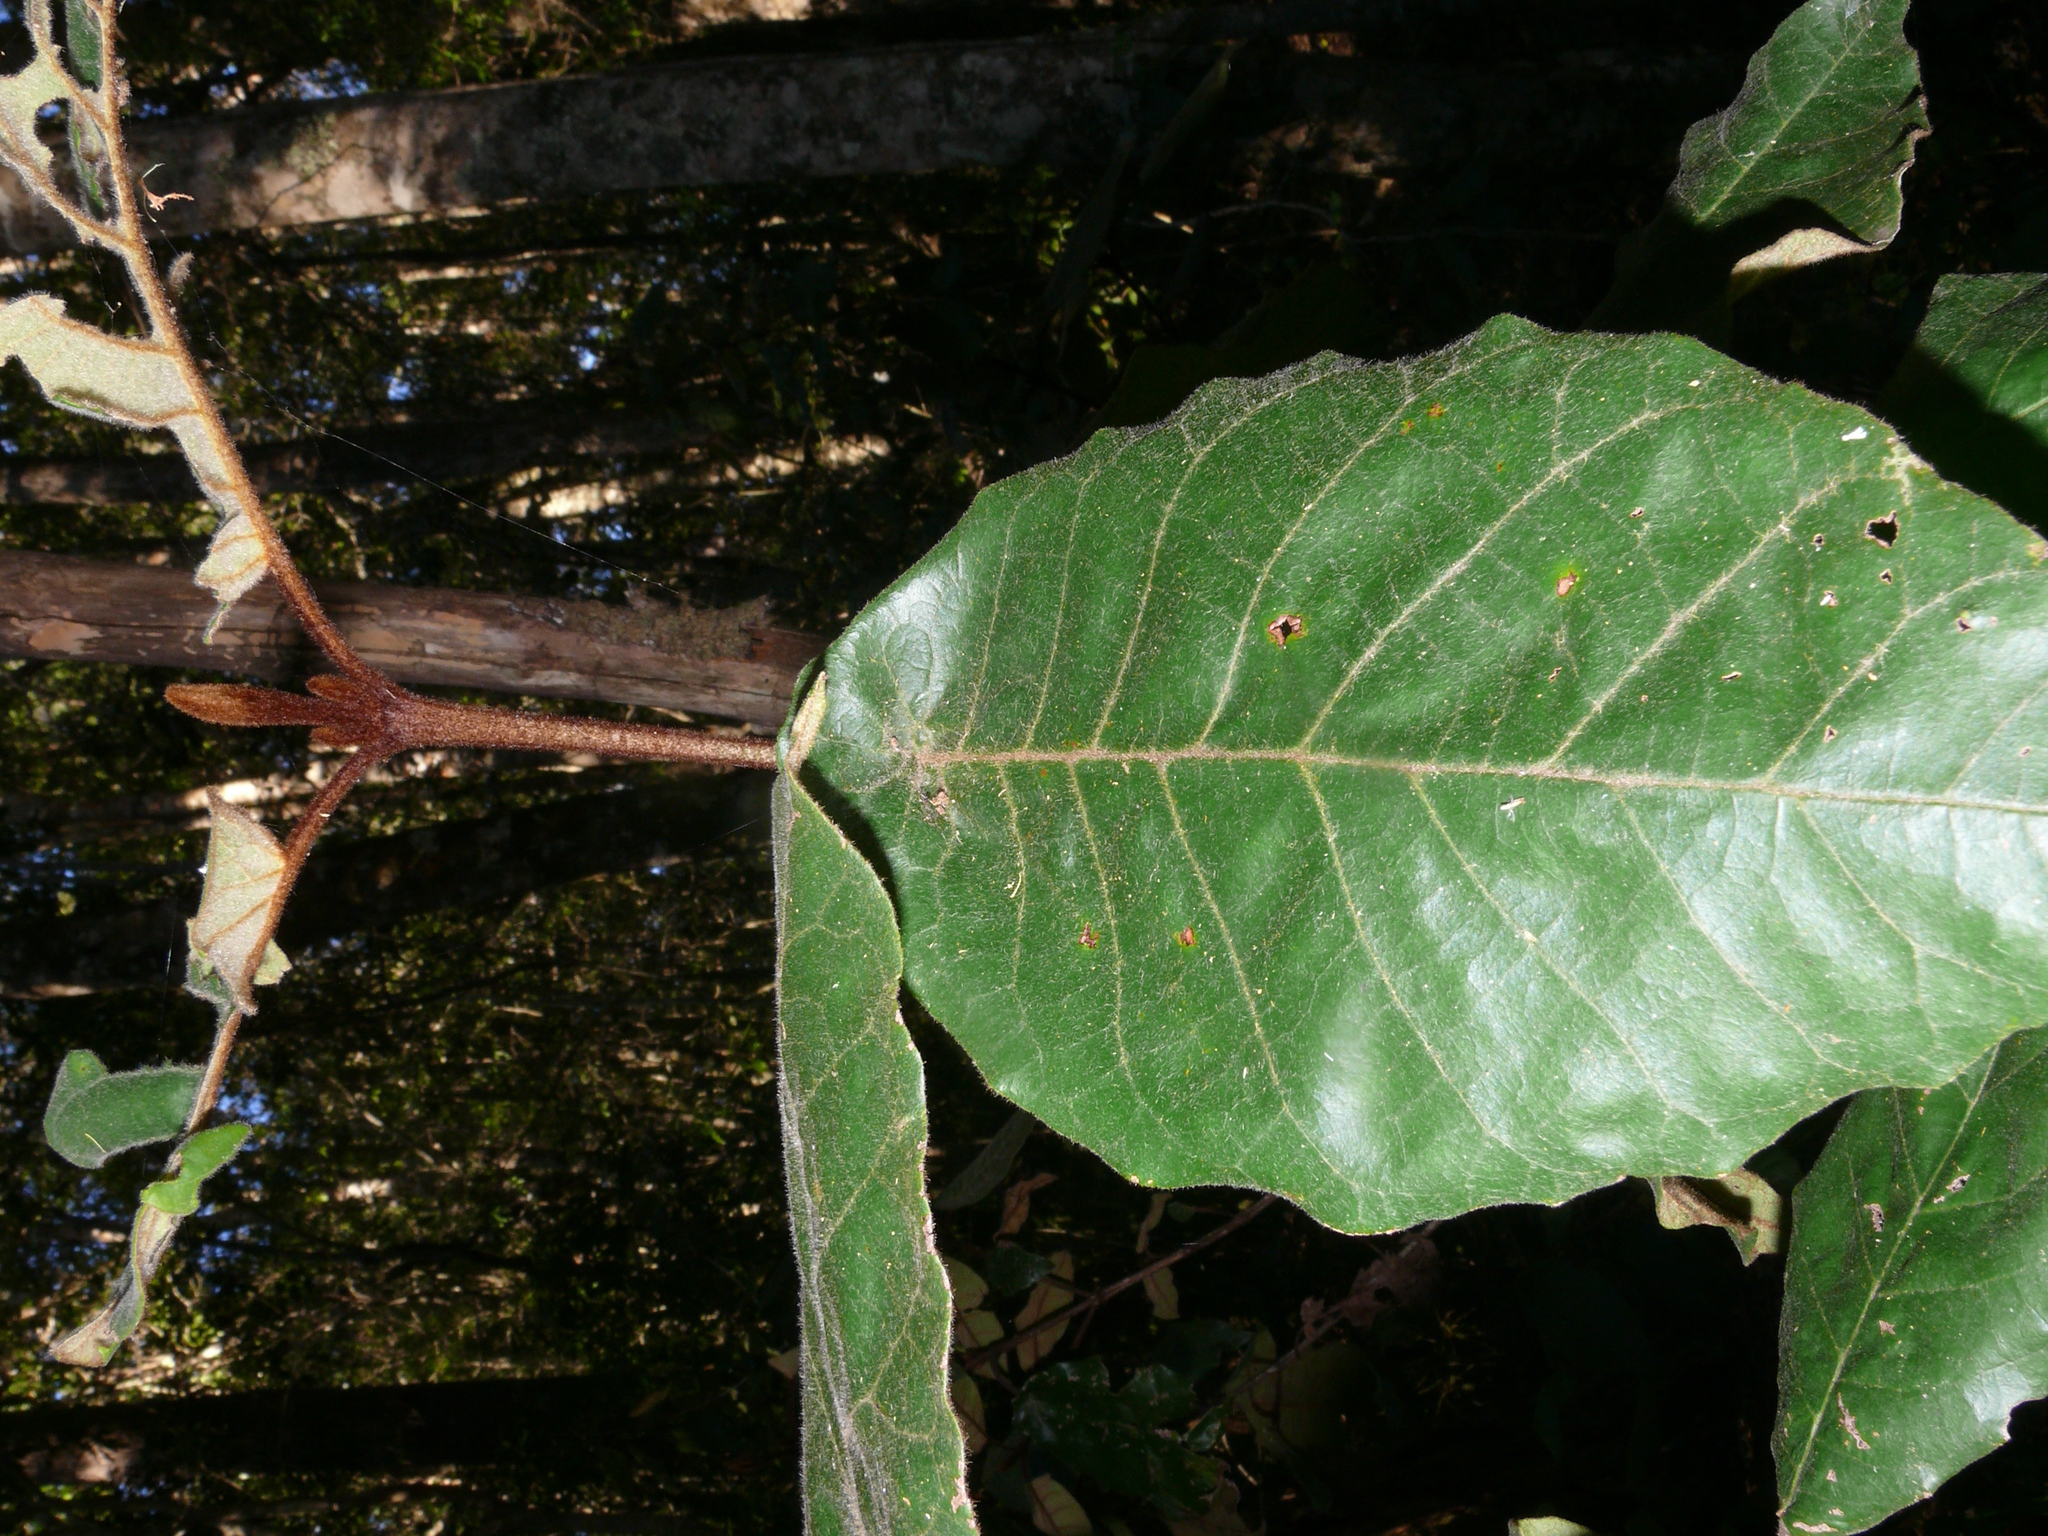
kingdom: Plantae
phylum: Tracheophyta
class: Magnoliopsida
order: Saxifragales
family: Hamamelidaceae
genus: Trichocladus
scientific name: Trichocladus crinitus
